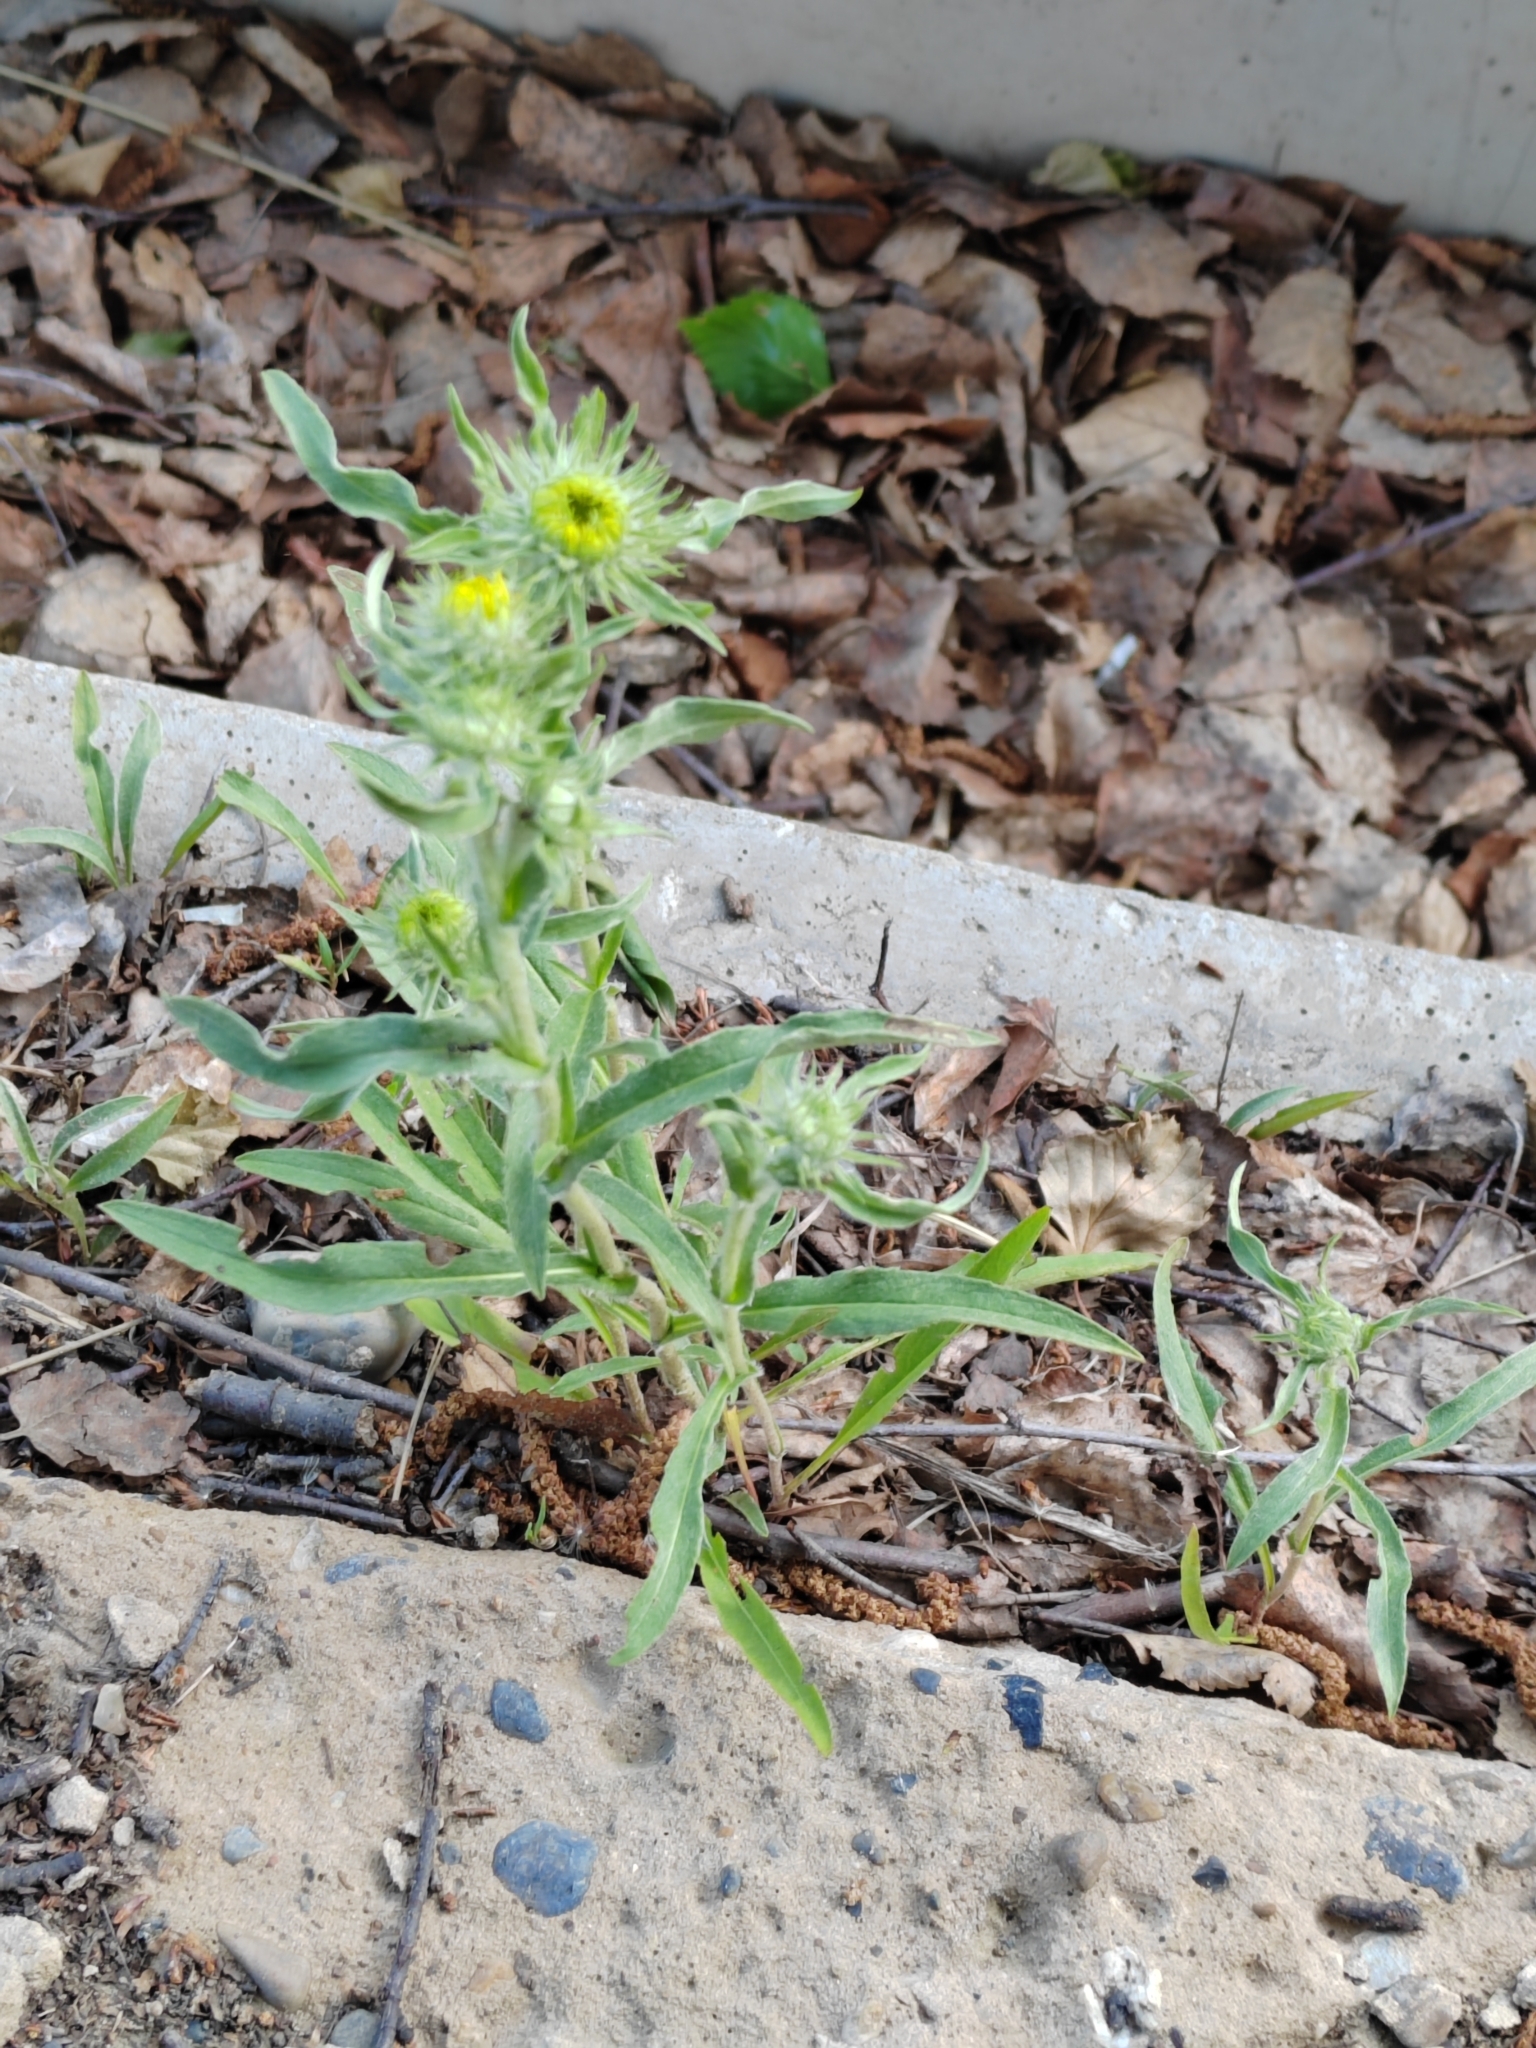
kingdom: Plantae
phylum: Tracheophyta
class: Magnoliopsida
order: Asterales
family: Asteraceae
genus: Pentanema
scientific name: Pentanema britannicum
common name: British elecampane
